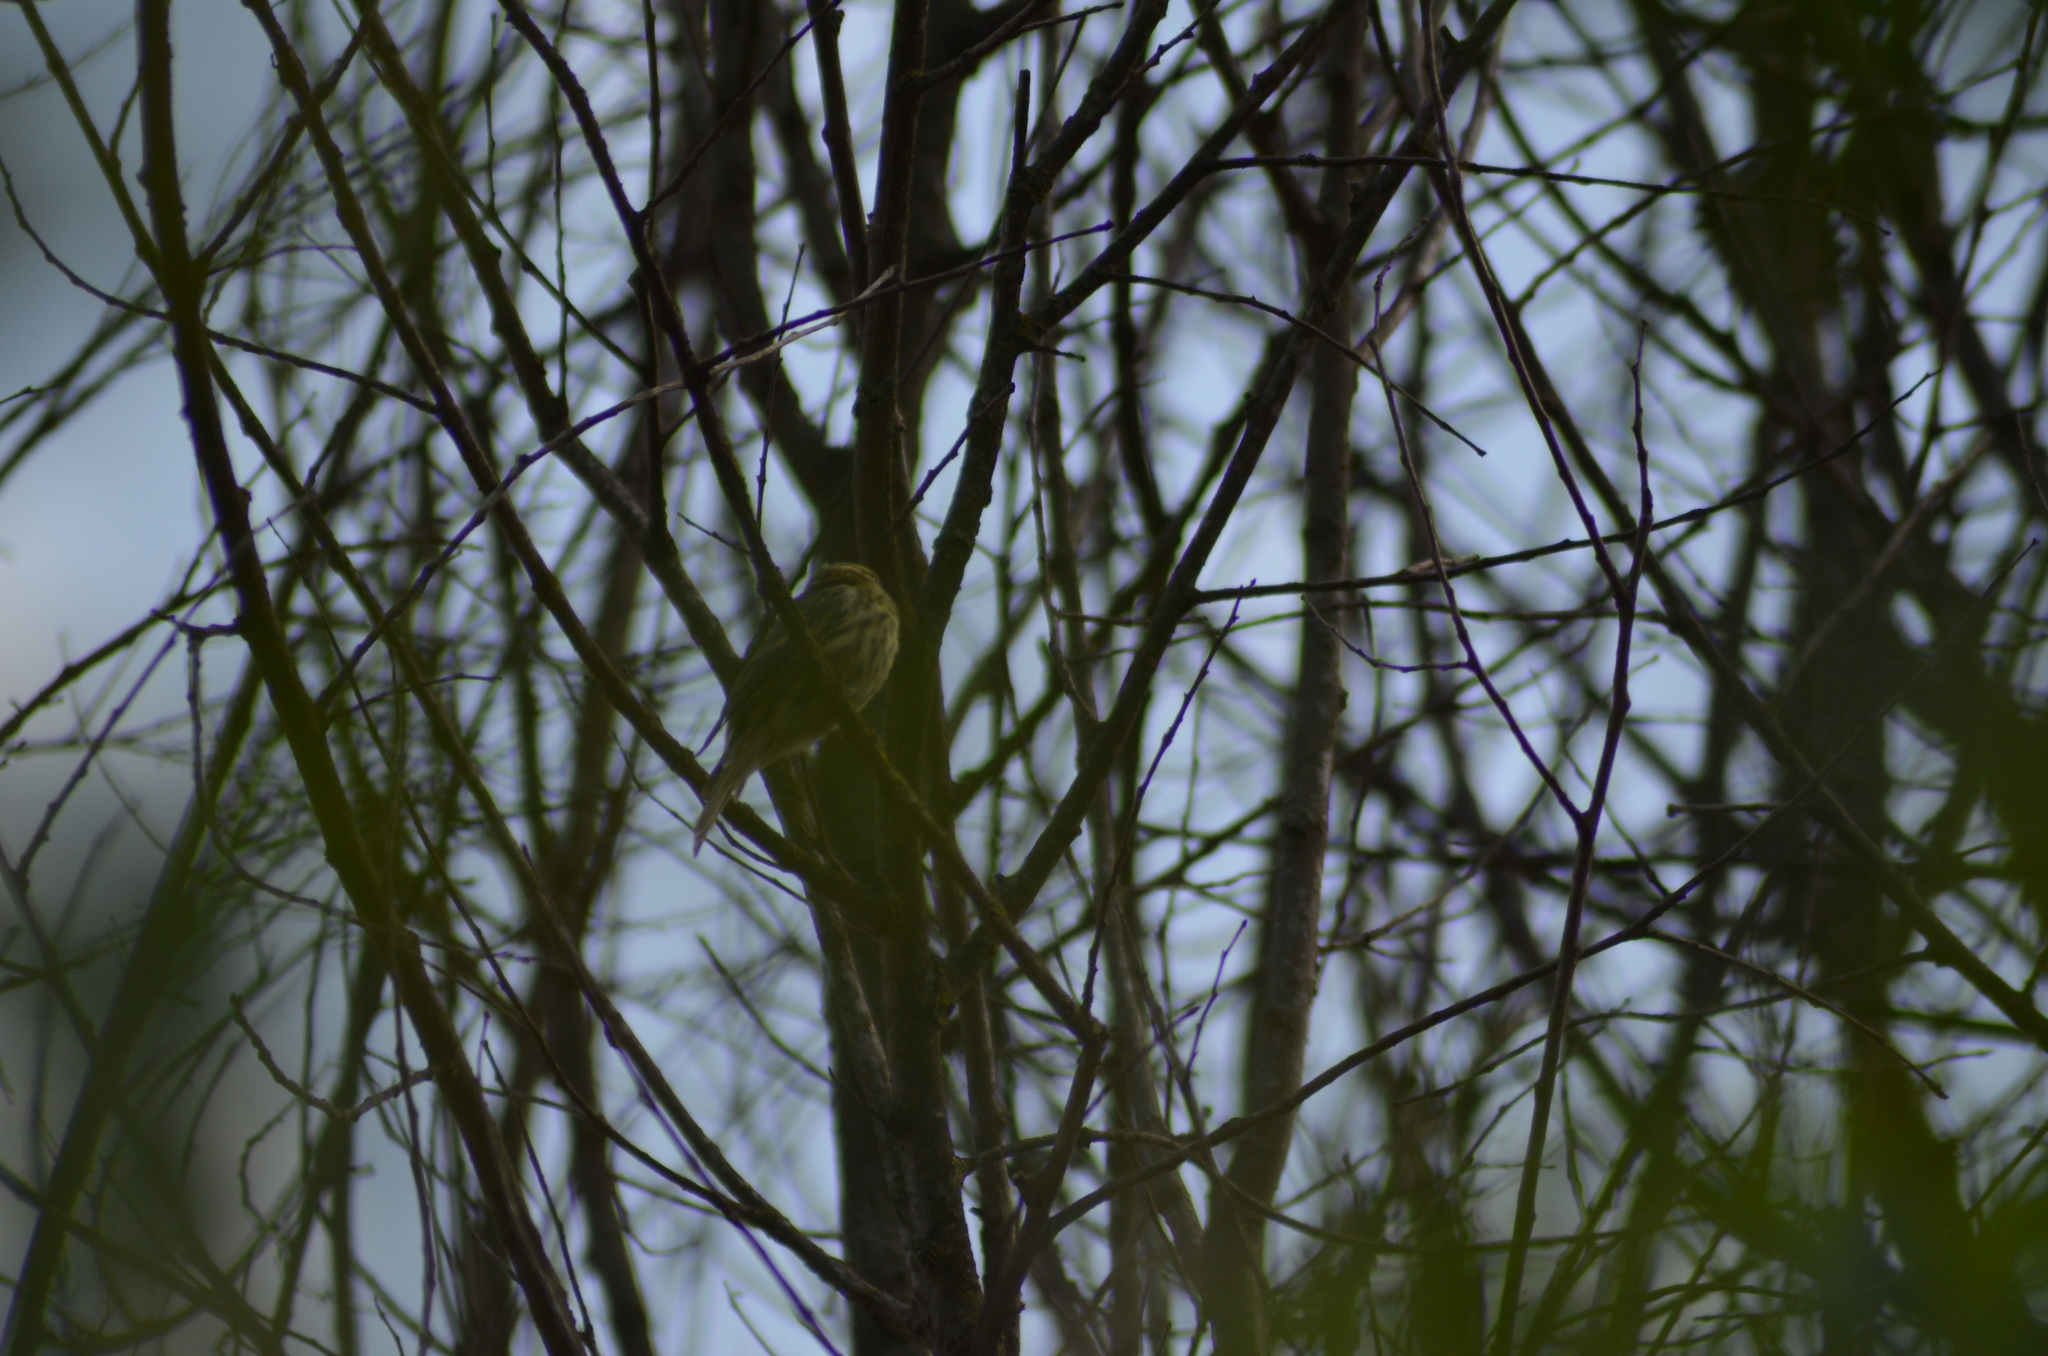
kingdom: Animalia
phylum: Chordata
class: Aves
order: Passeriformes
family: Fringillidae
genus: Serinus
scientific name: Serinus serinus
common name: European serin
